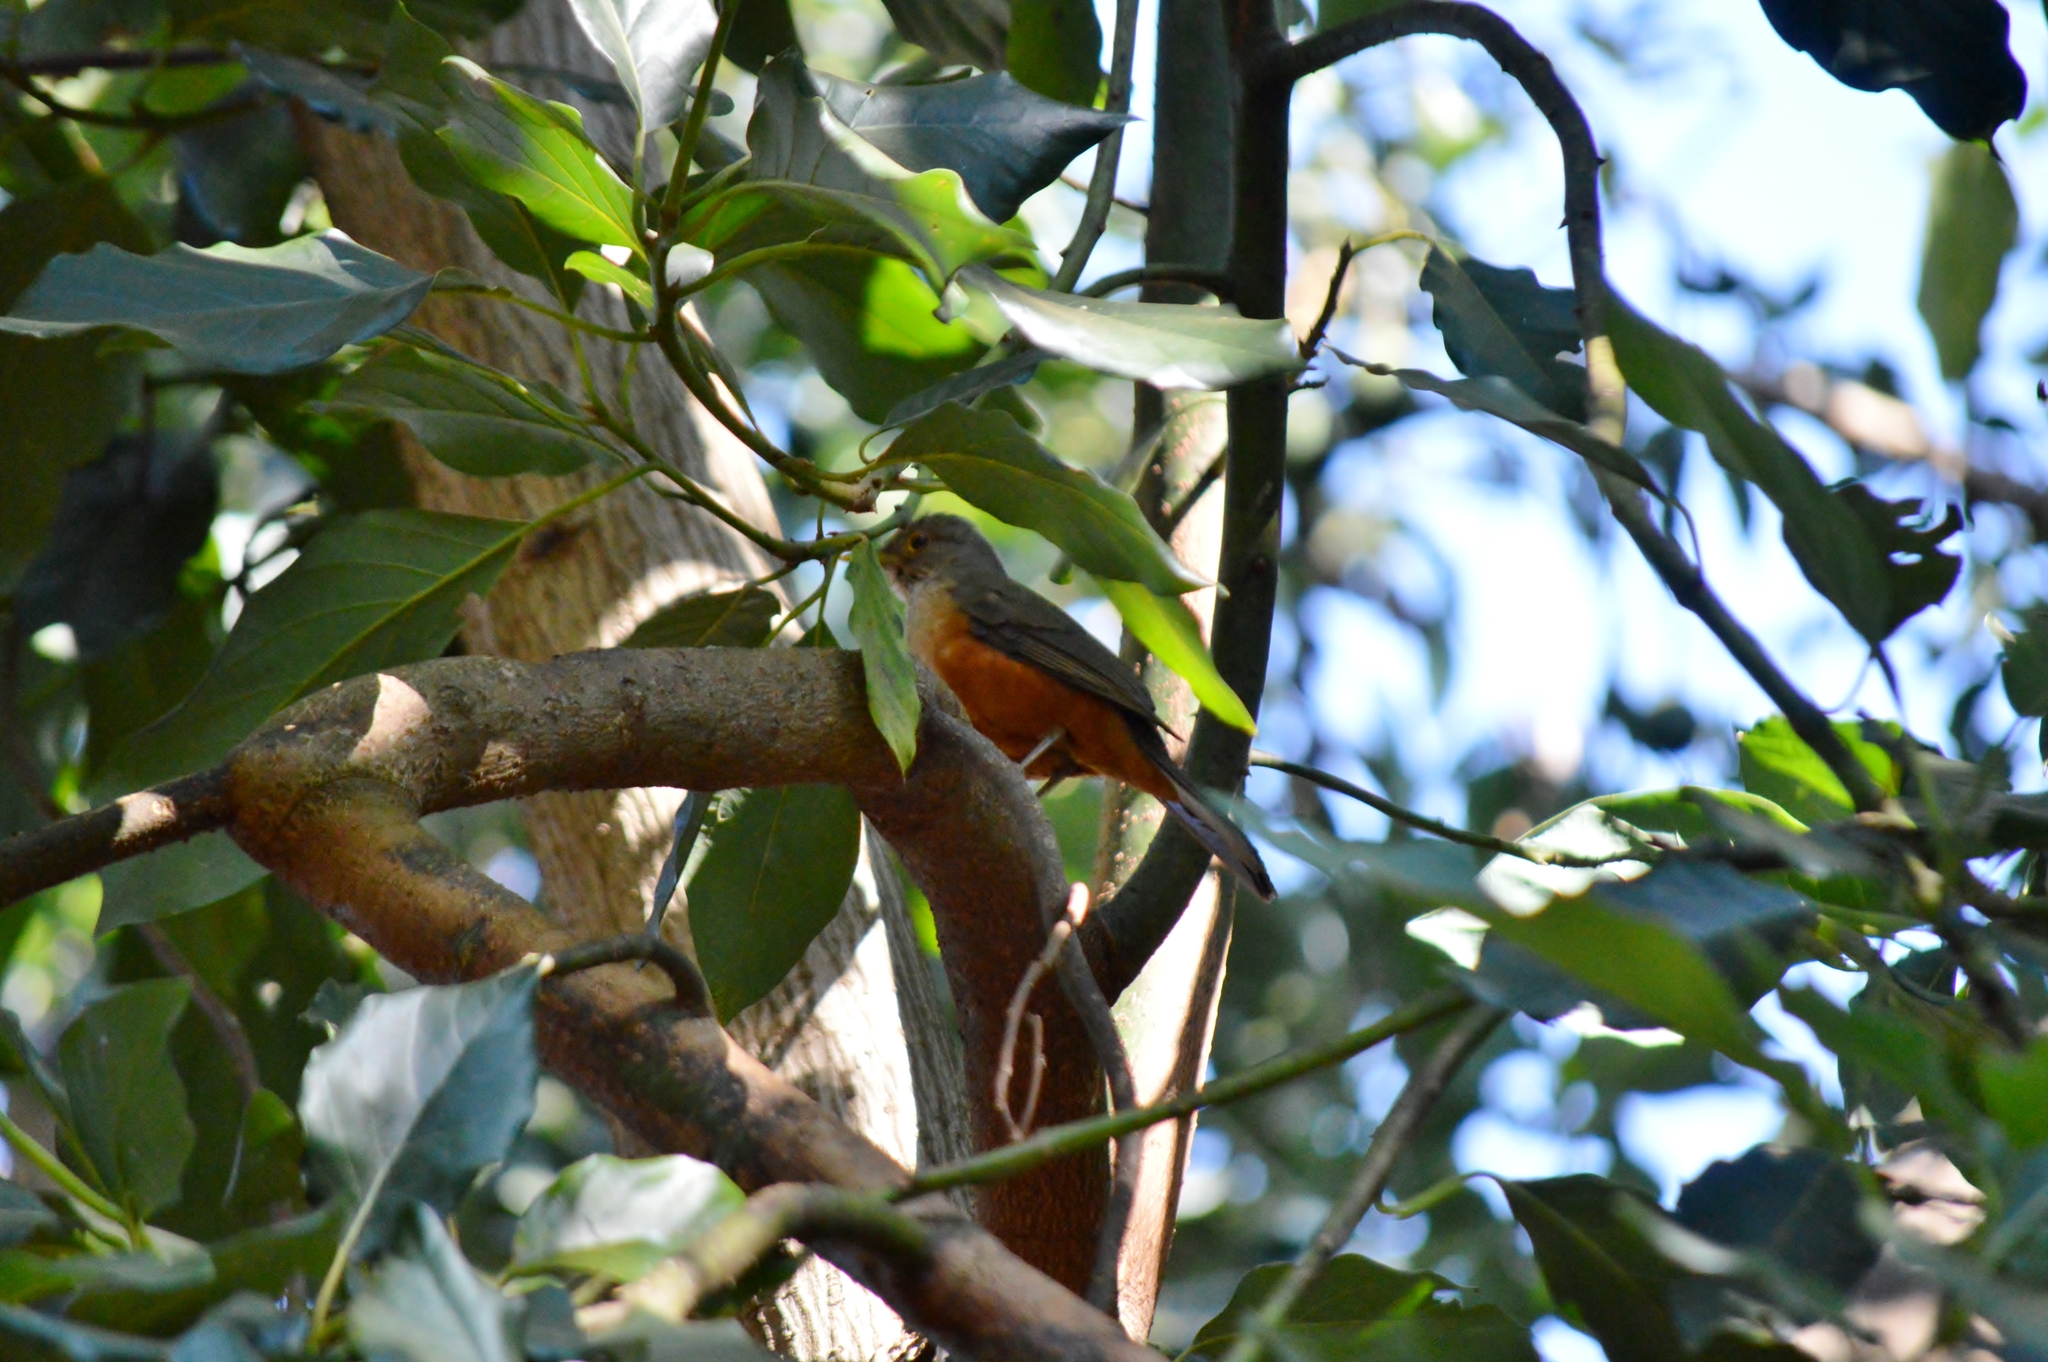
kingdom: Animalia
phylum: Chordata
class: Aves
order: Passeriformes
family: Turdidae
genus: Turdus
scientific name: Turdus rufiventris
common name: Rufous-bellied thrush
